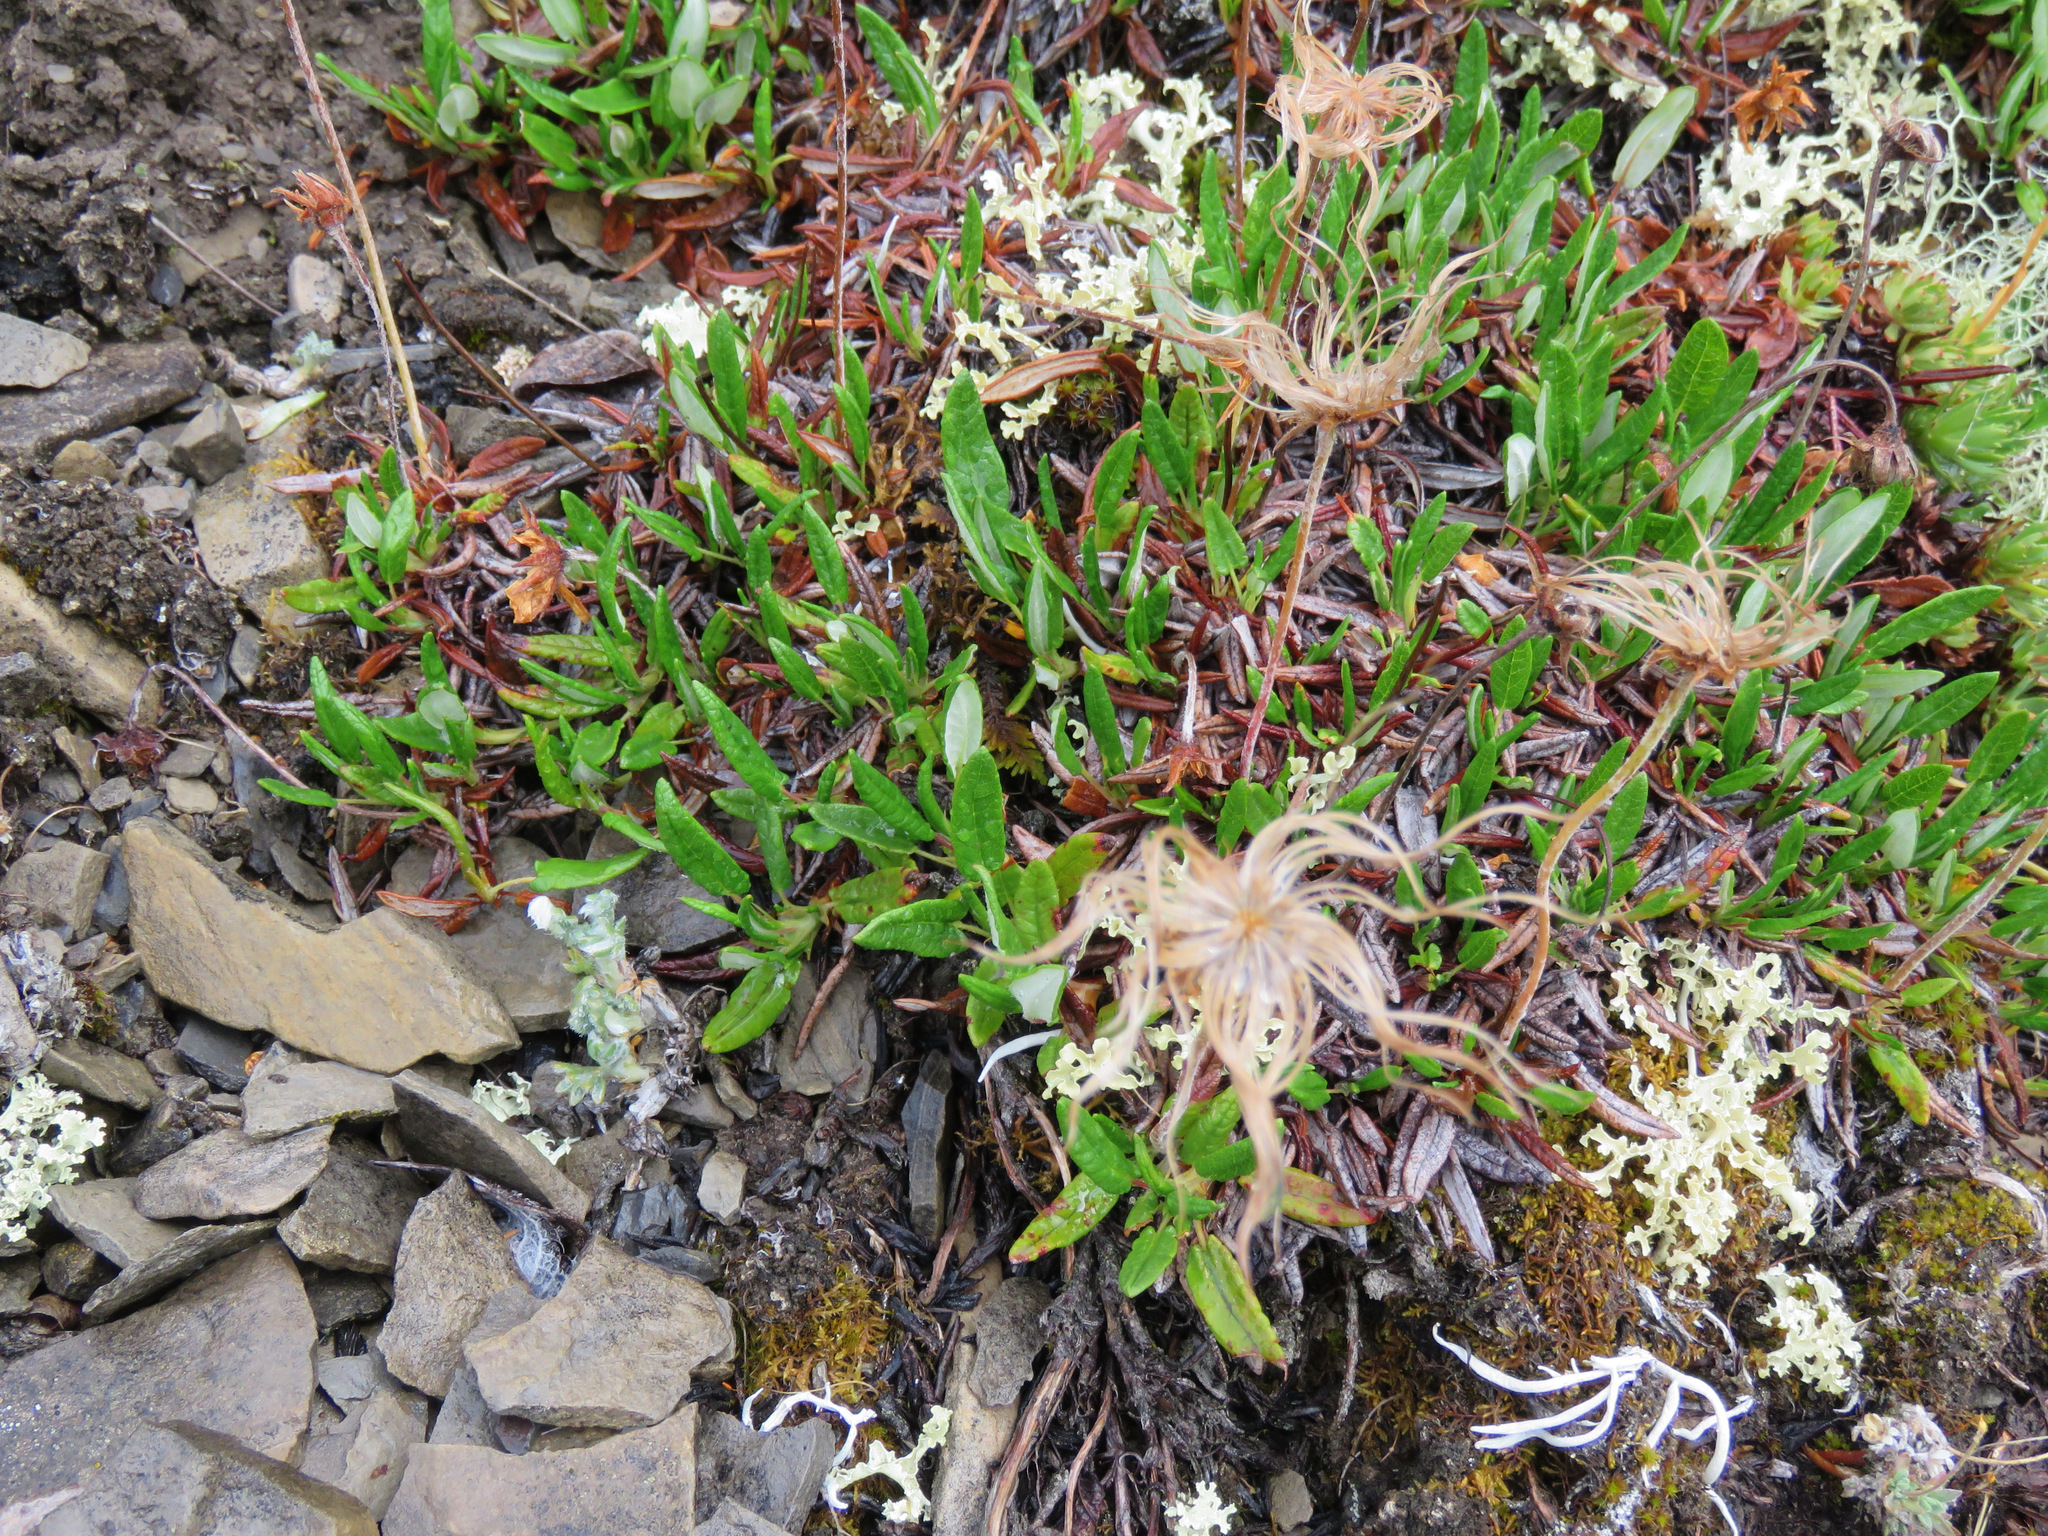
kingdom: Plantae
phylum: Tracheophyta
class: Magnoliopsida
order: Rosales
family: Rosaceae
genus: Dryas
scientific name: Dryas integrifolia
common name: Entire-leaved mountain avens
